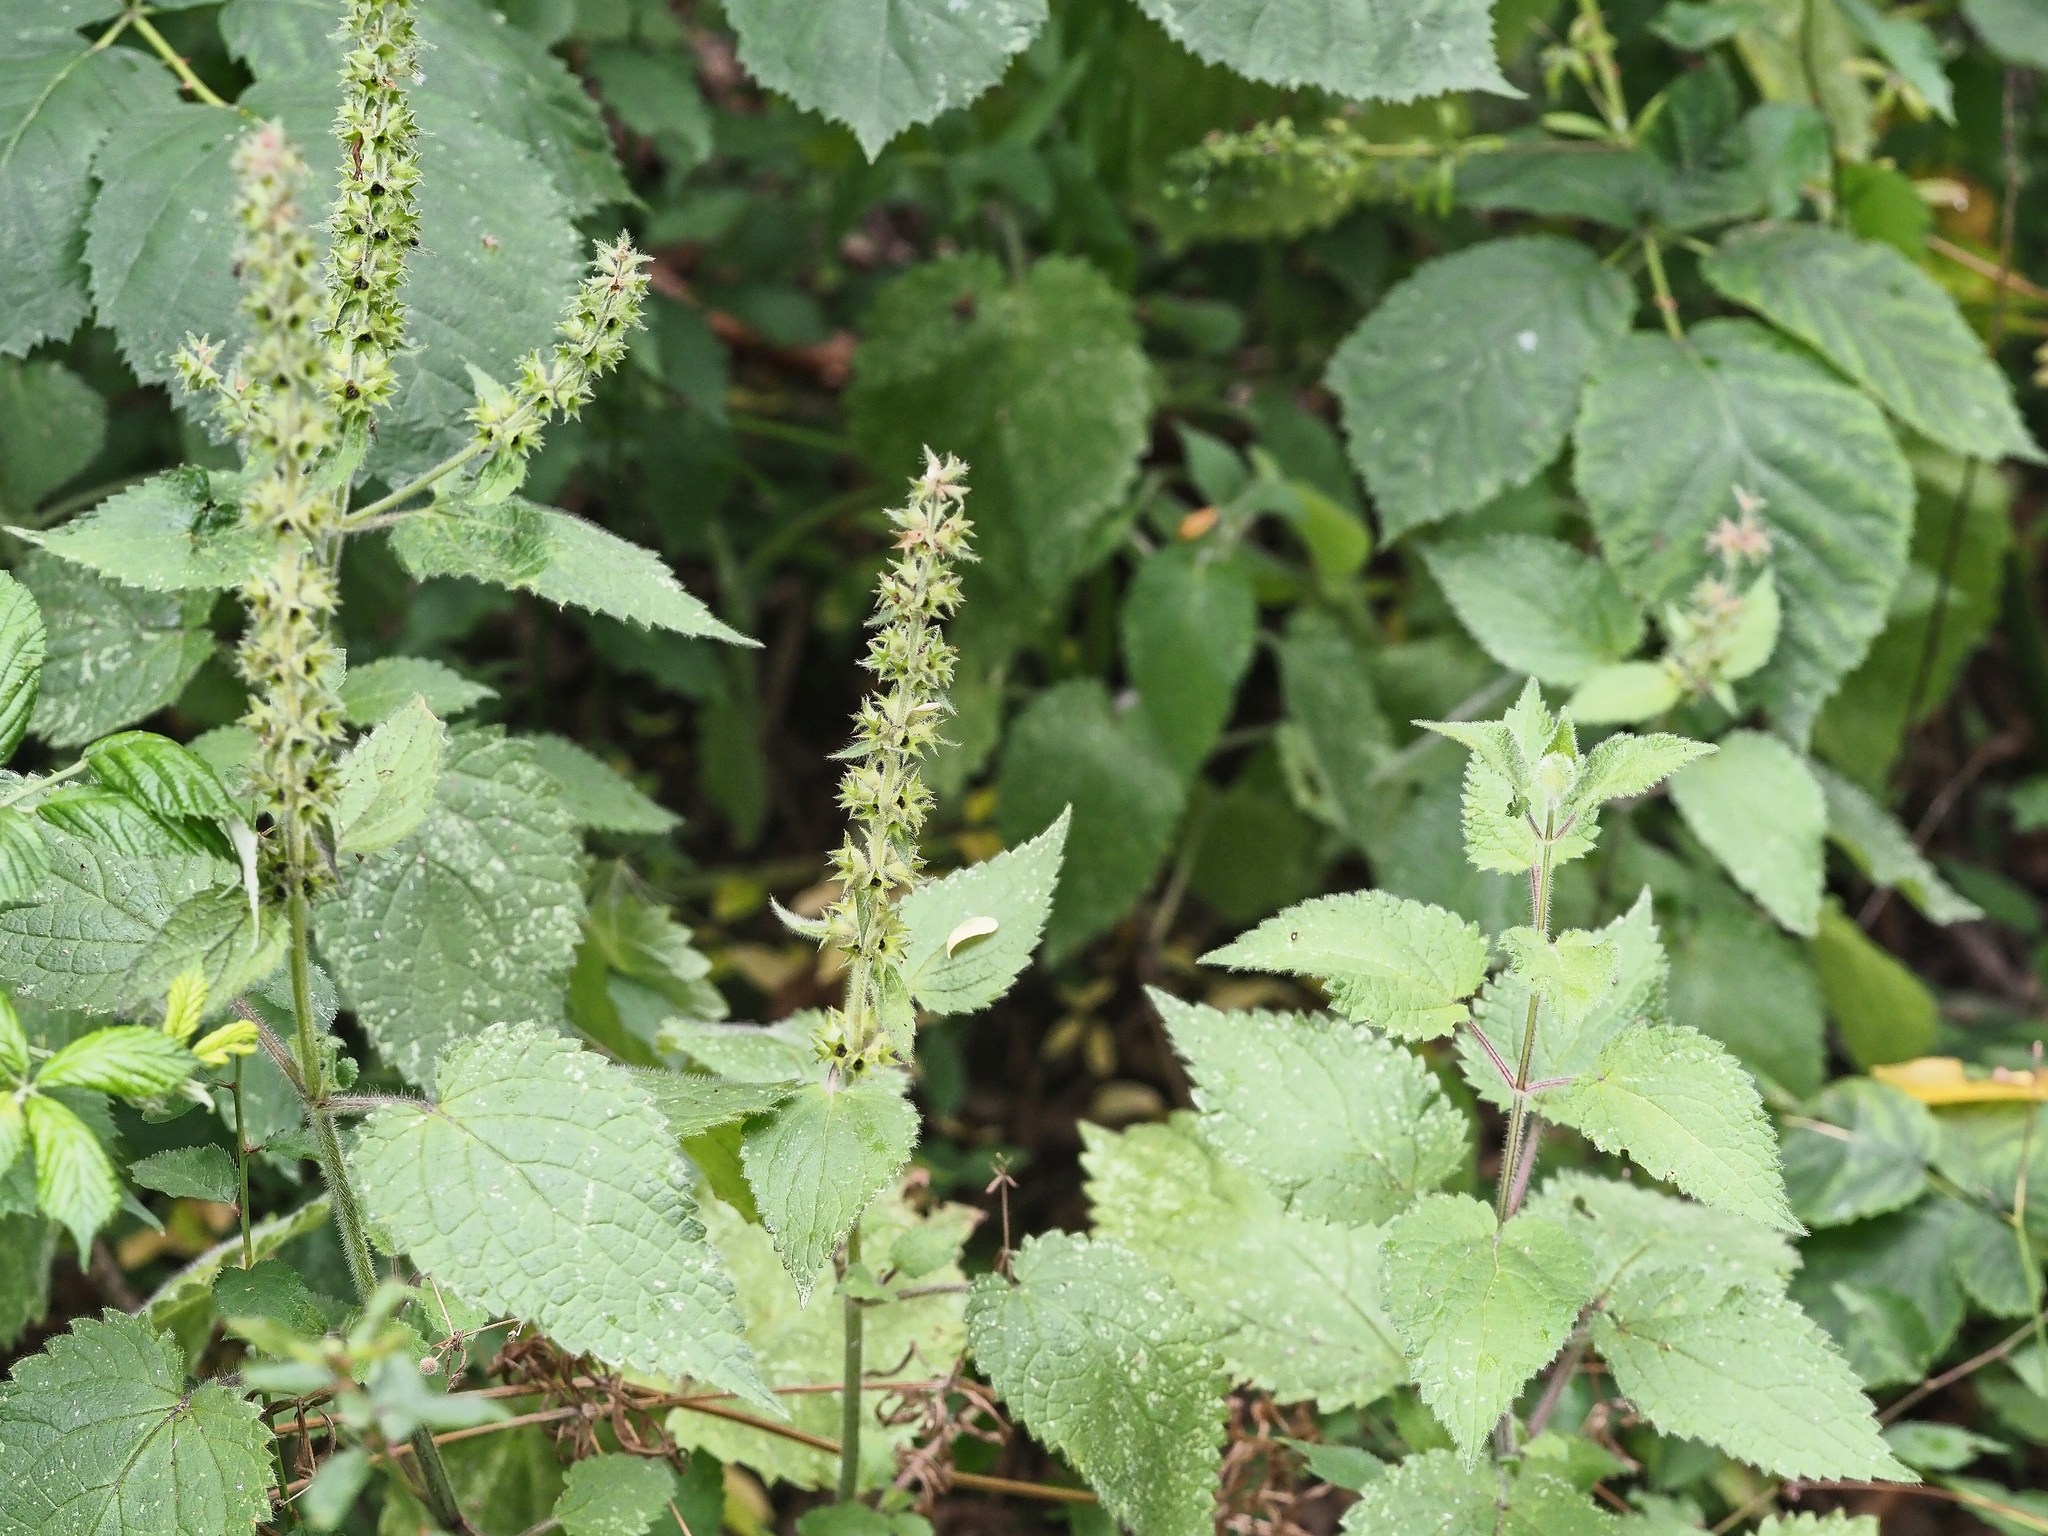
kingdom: Plantae
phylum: Tracheophyta
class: Magnoliopsida
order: Lamiales
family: Lamiaceae
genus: Stachys
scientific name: Stachys sylvatica
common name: Hedge woundwort
